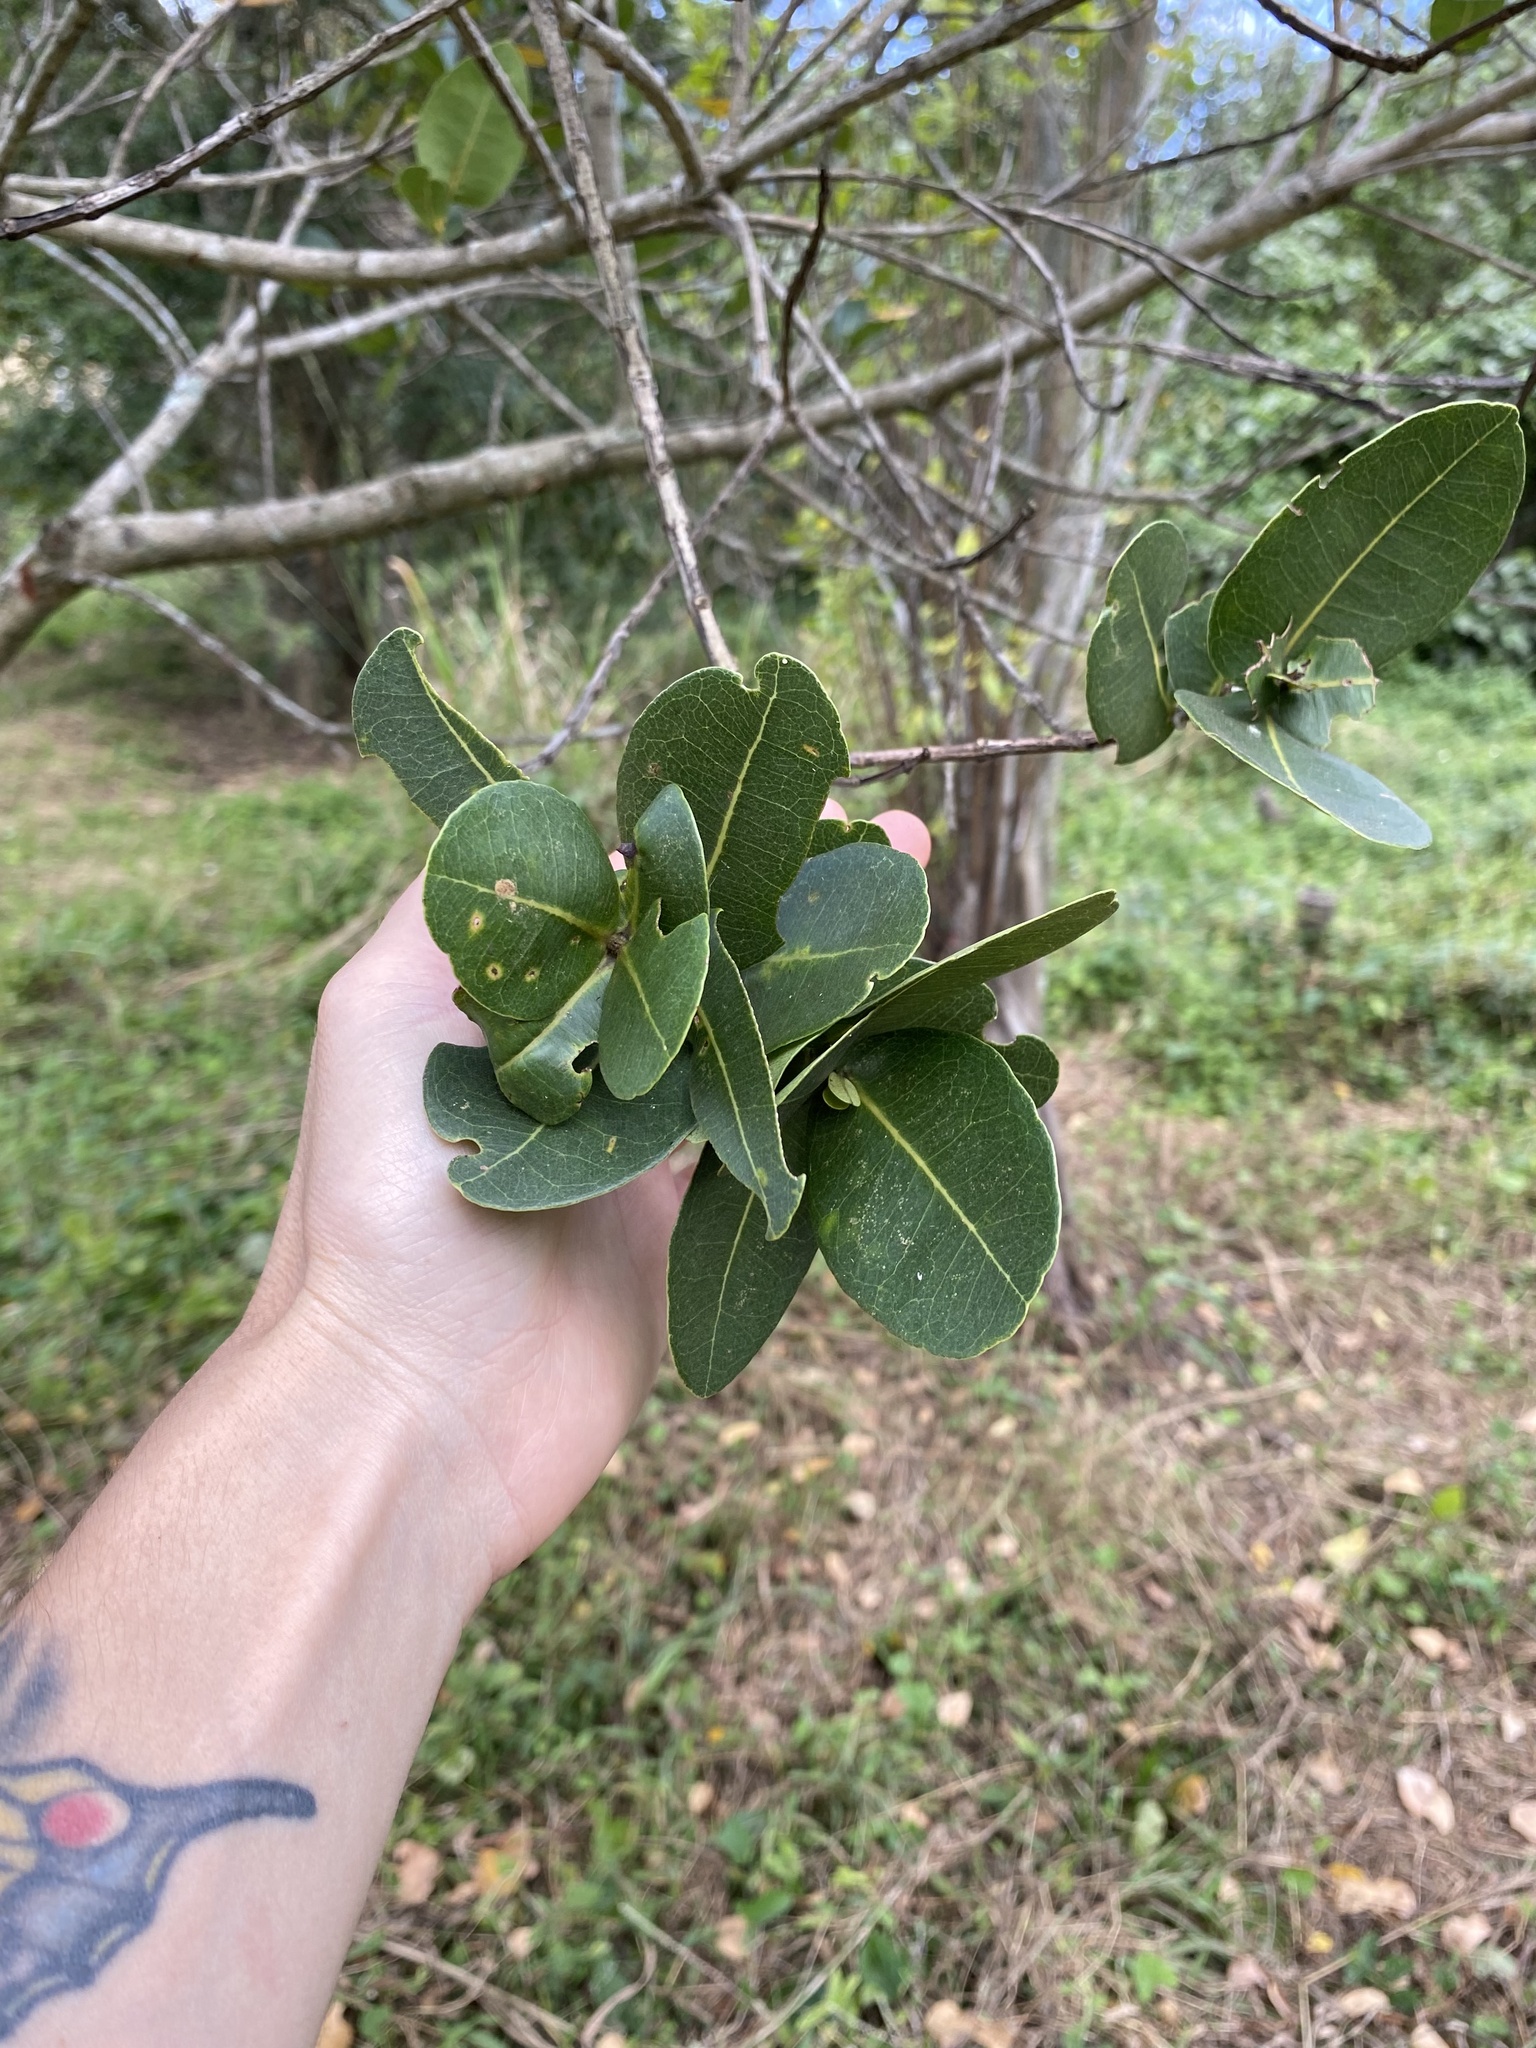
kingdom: Plantae
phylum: Tracheophyta
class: Magnoliopsida
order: Myrtales
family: Myrtaceae
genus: Syzygium
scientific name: Syzygium cordatum
